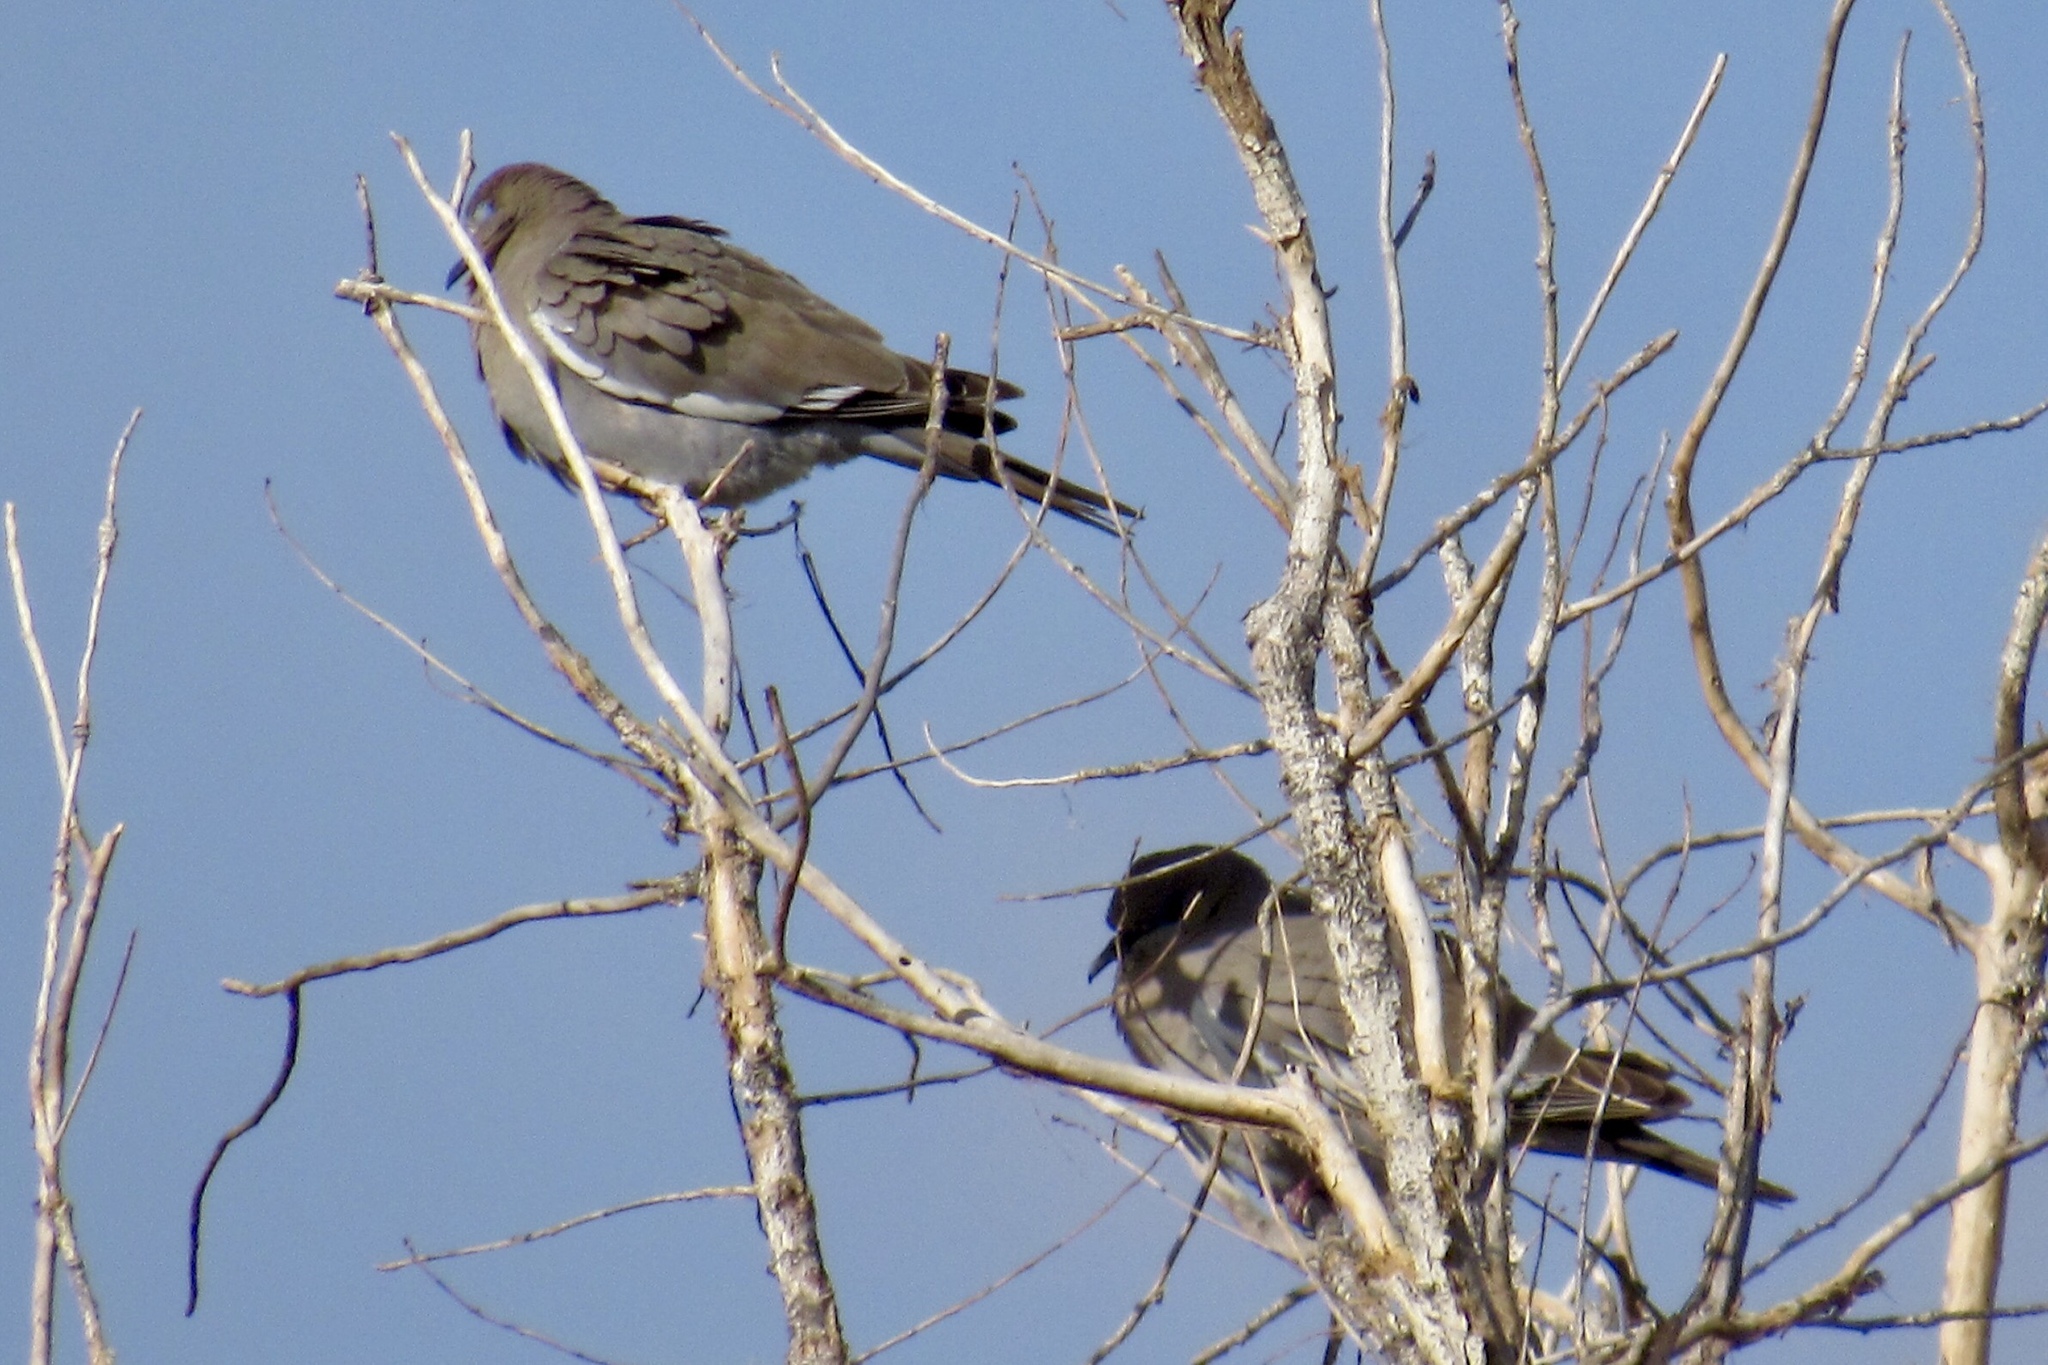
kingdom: Animalia
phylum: Chordata
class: Aves
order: Columbiformes
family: Columbidae
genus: Zenaida
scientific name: Zenaida asiatica
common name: White-winged dove
